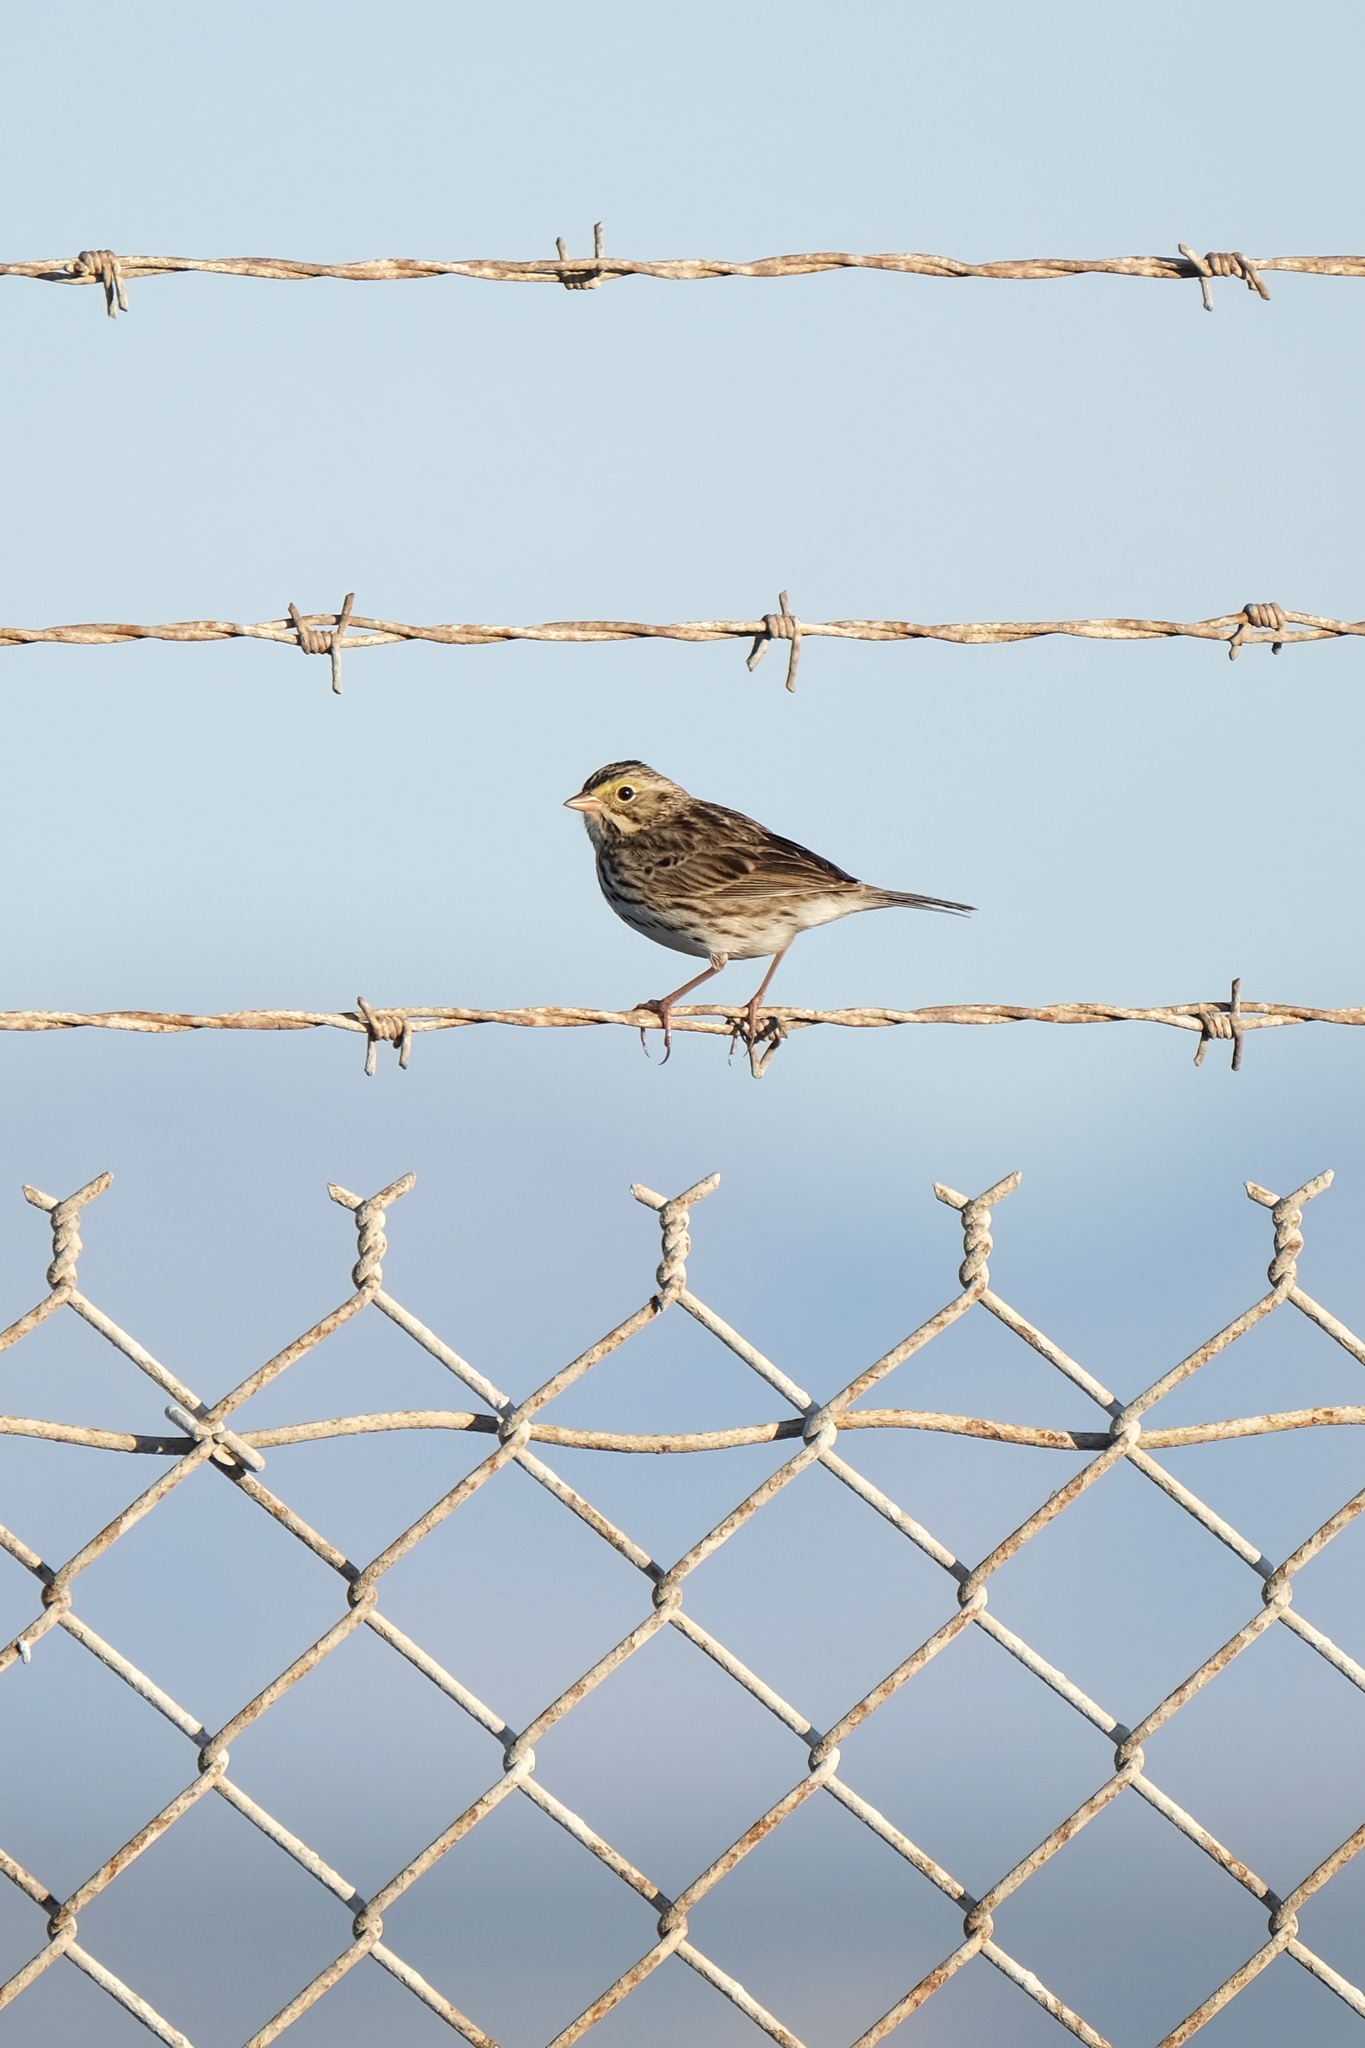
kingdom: Animalia
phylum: Chordata
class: Aves
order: Passeriformes
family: Passerellidae
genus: Passerculus
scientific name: Passerculus sandwichensis
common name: Savannah sparrow
